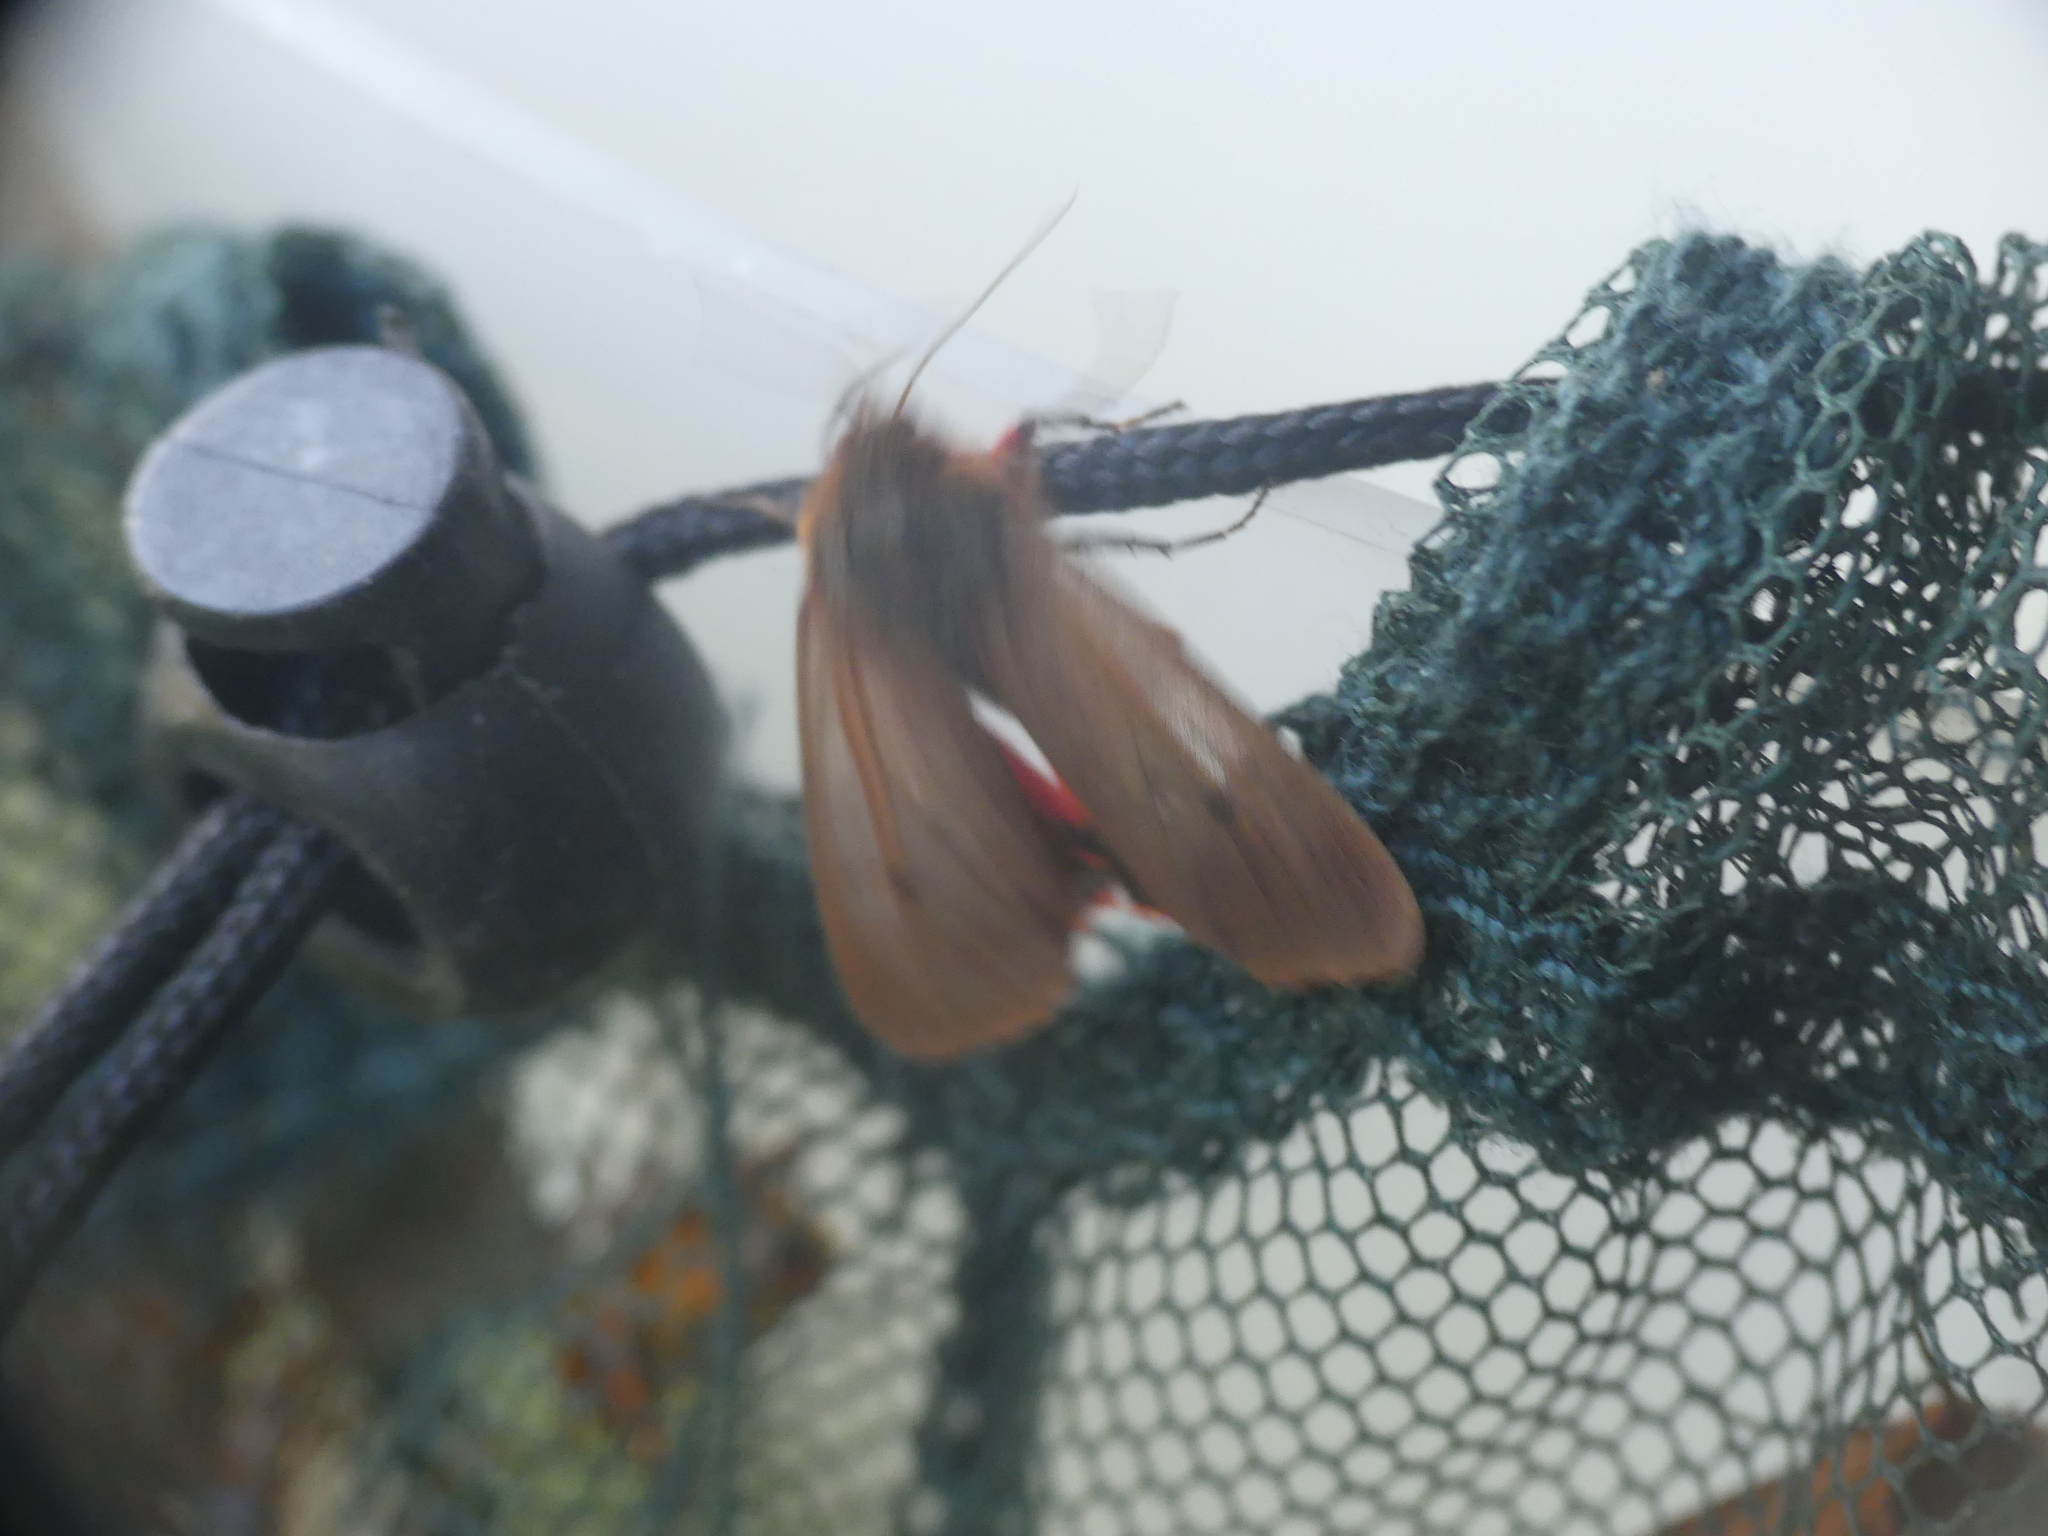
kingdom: Animalia
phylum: Arthropoda
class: Insecta
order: Lepidoptera
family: Erebidae
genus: Phragmatobia
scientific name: Phragmatobia fuliginosa
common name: Ruby tiger
